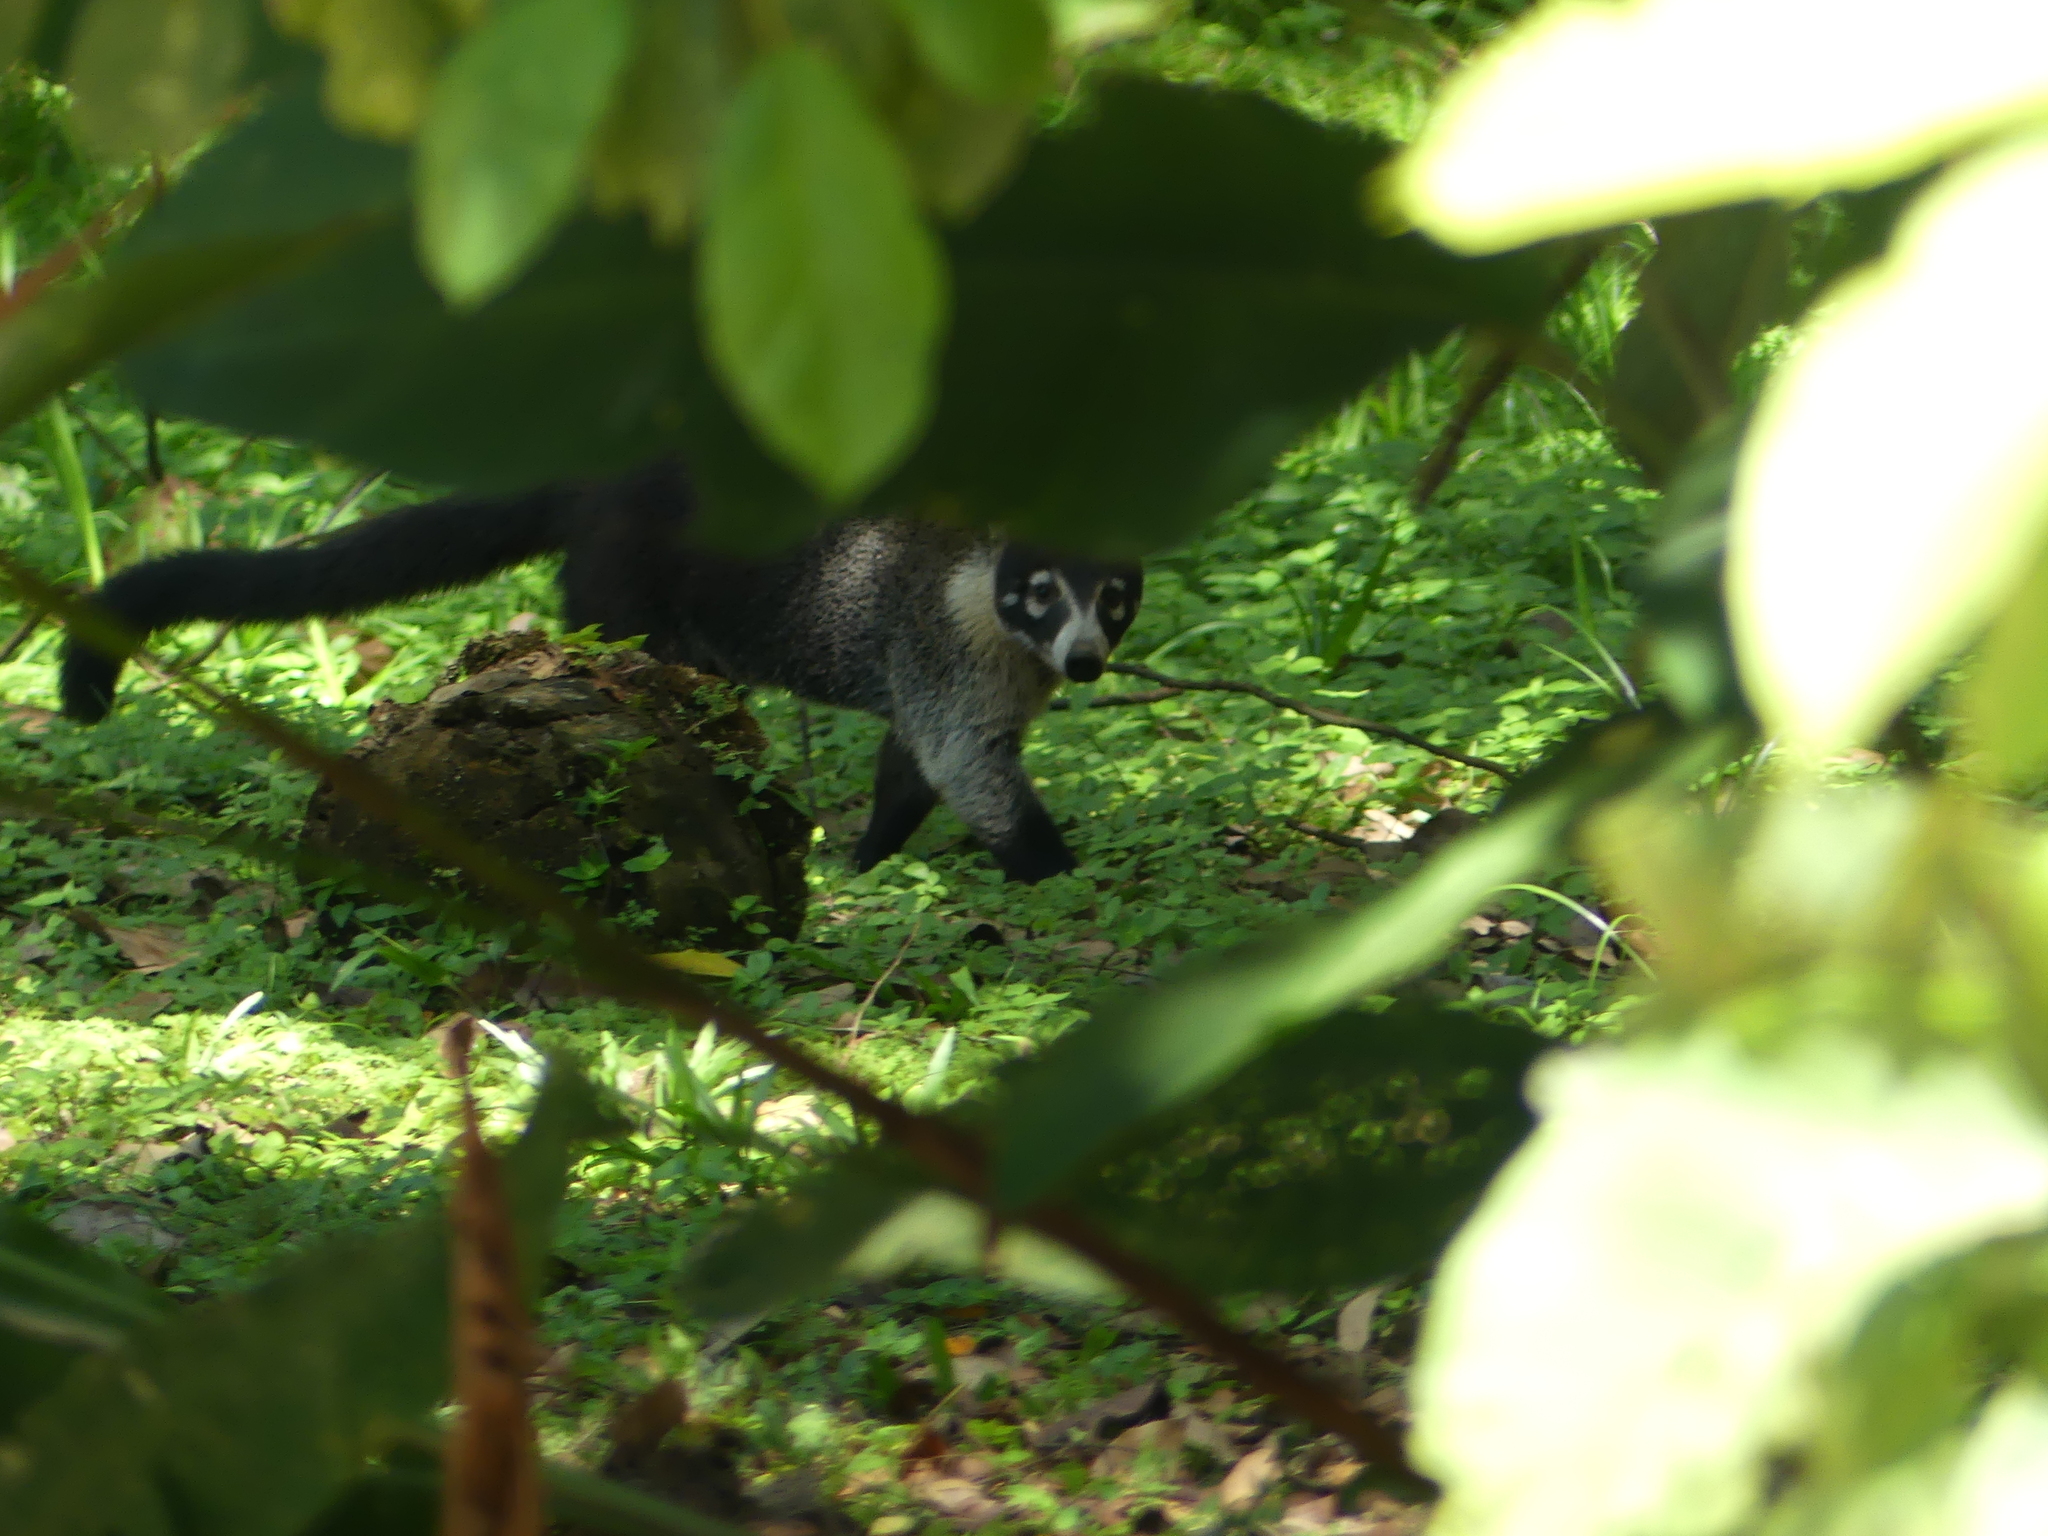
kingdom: Animalia
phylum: Chordata
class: Mammalia
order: Carnivora
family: Procyonidae
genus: Nasua
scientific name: Nasua narica
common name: White-nosed coati
